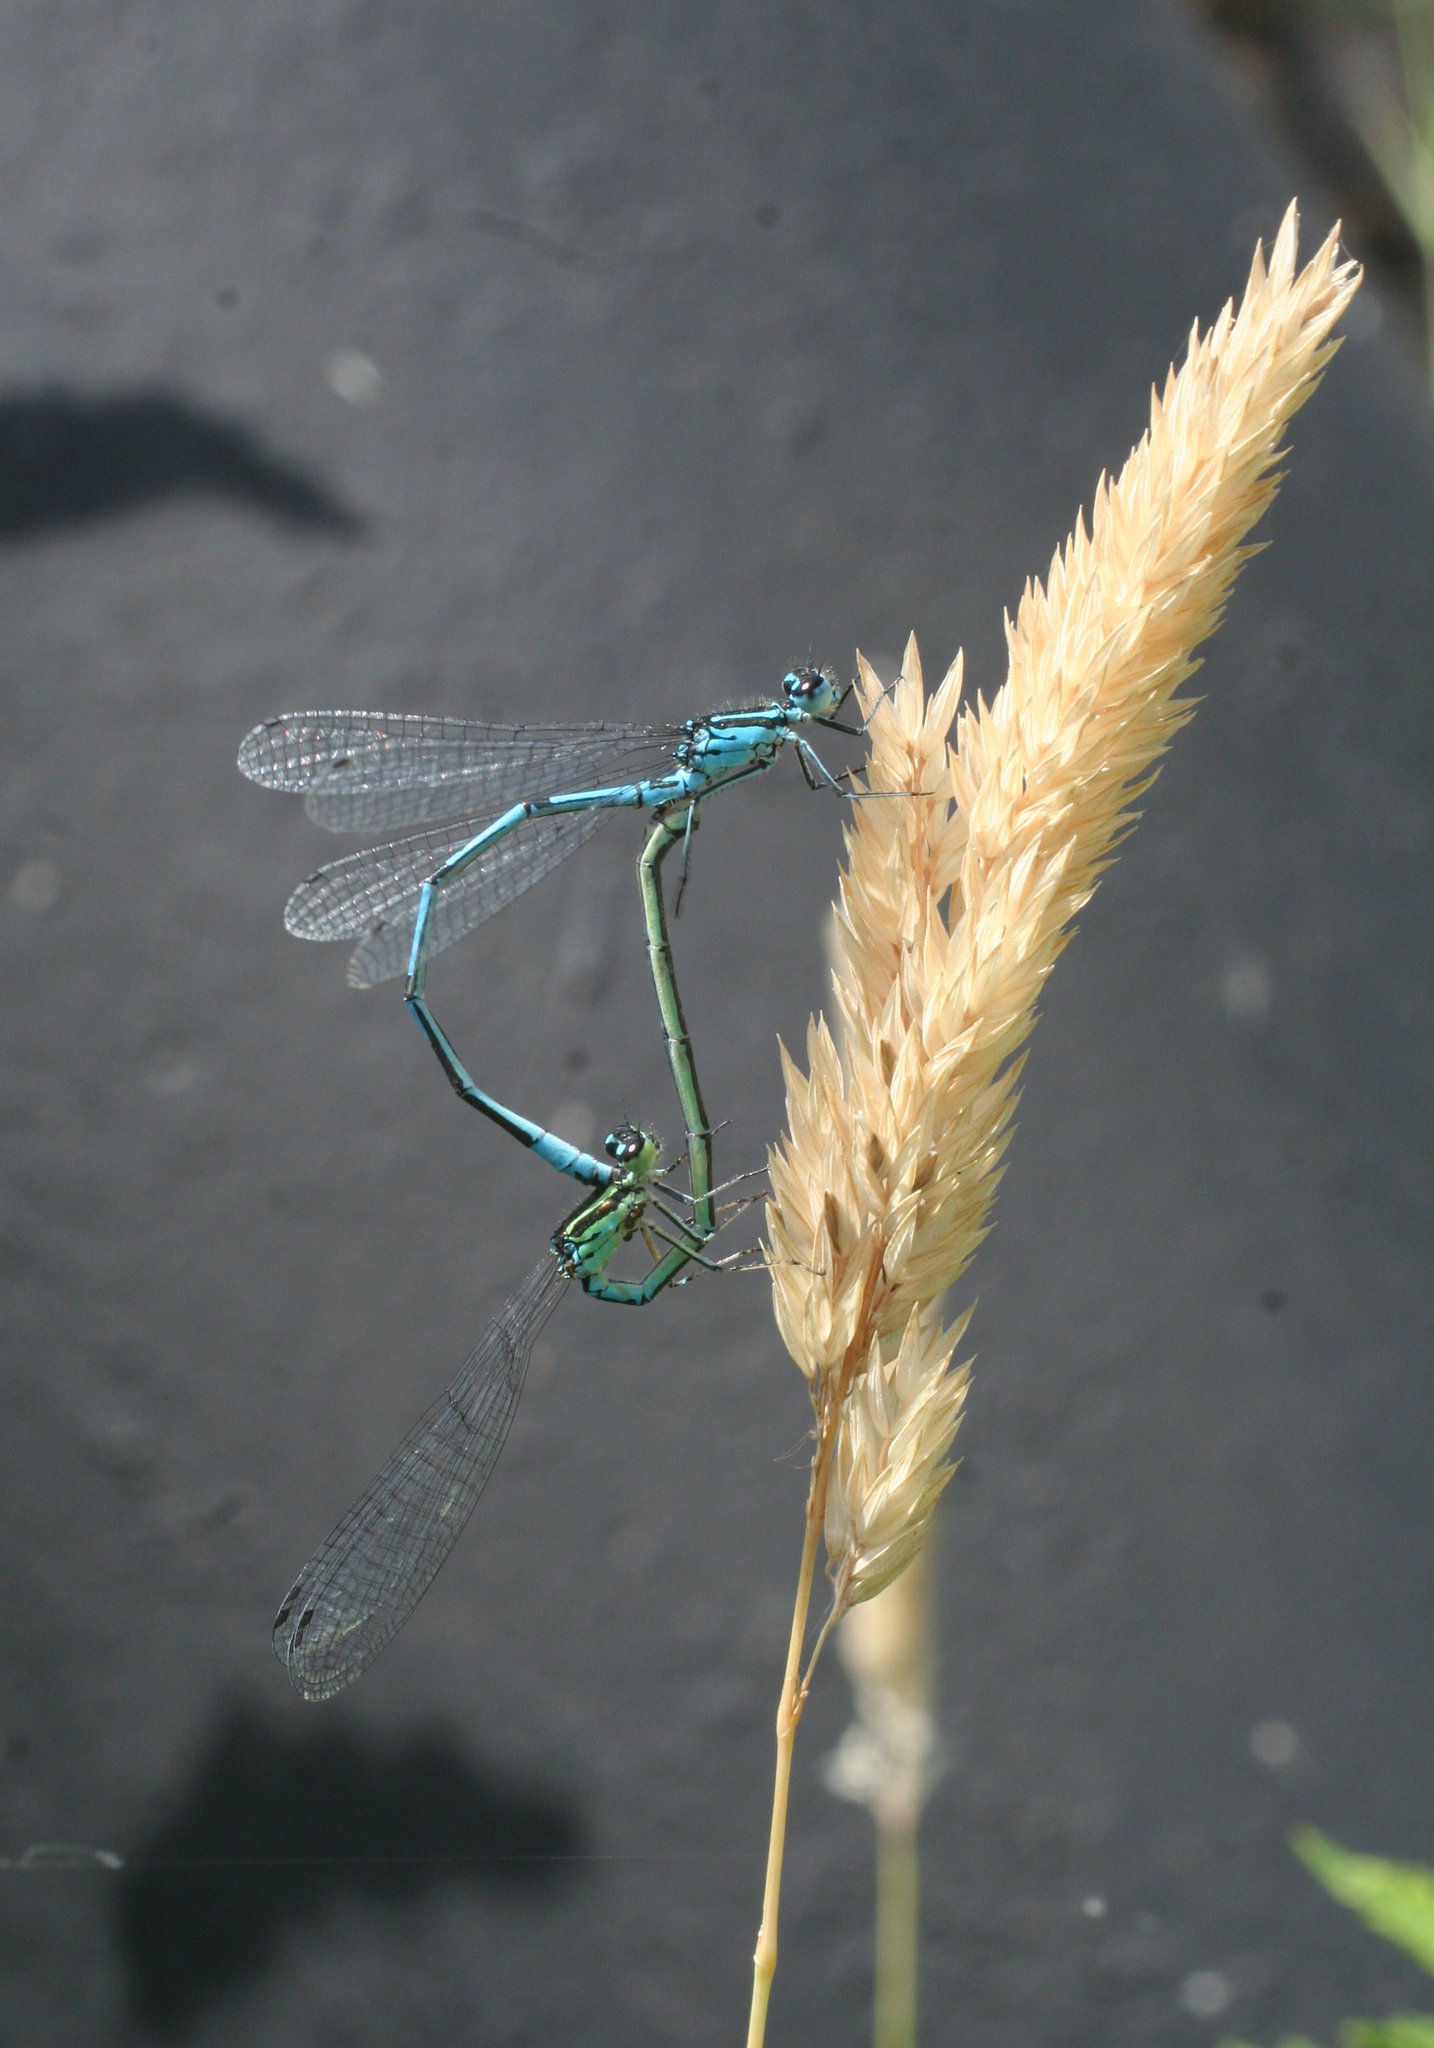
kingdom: Animalia
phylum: Arthropoda
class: Insecta
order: Odonata
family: Coenagrionidae
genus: Coenagrion
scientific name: Coenagrion puella
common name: Azure damselfly
